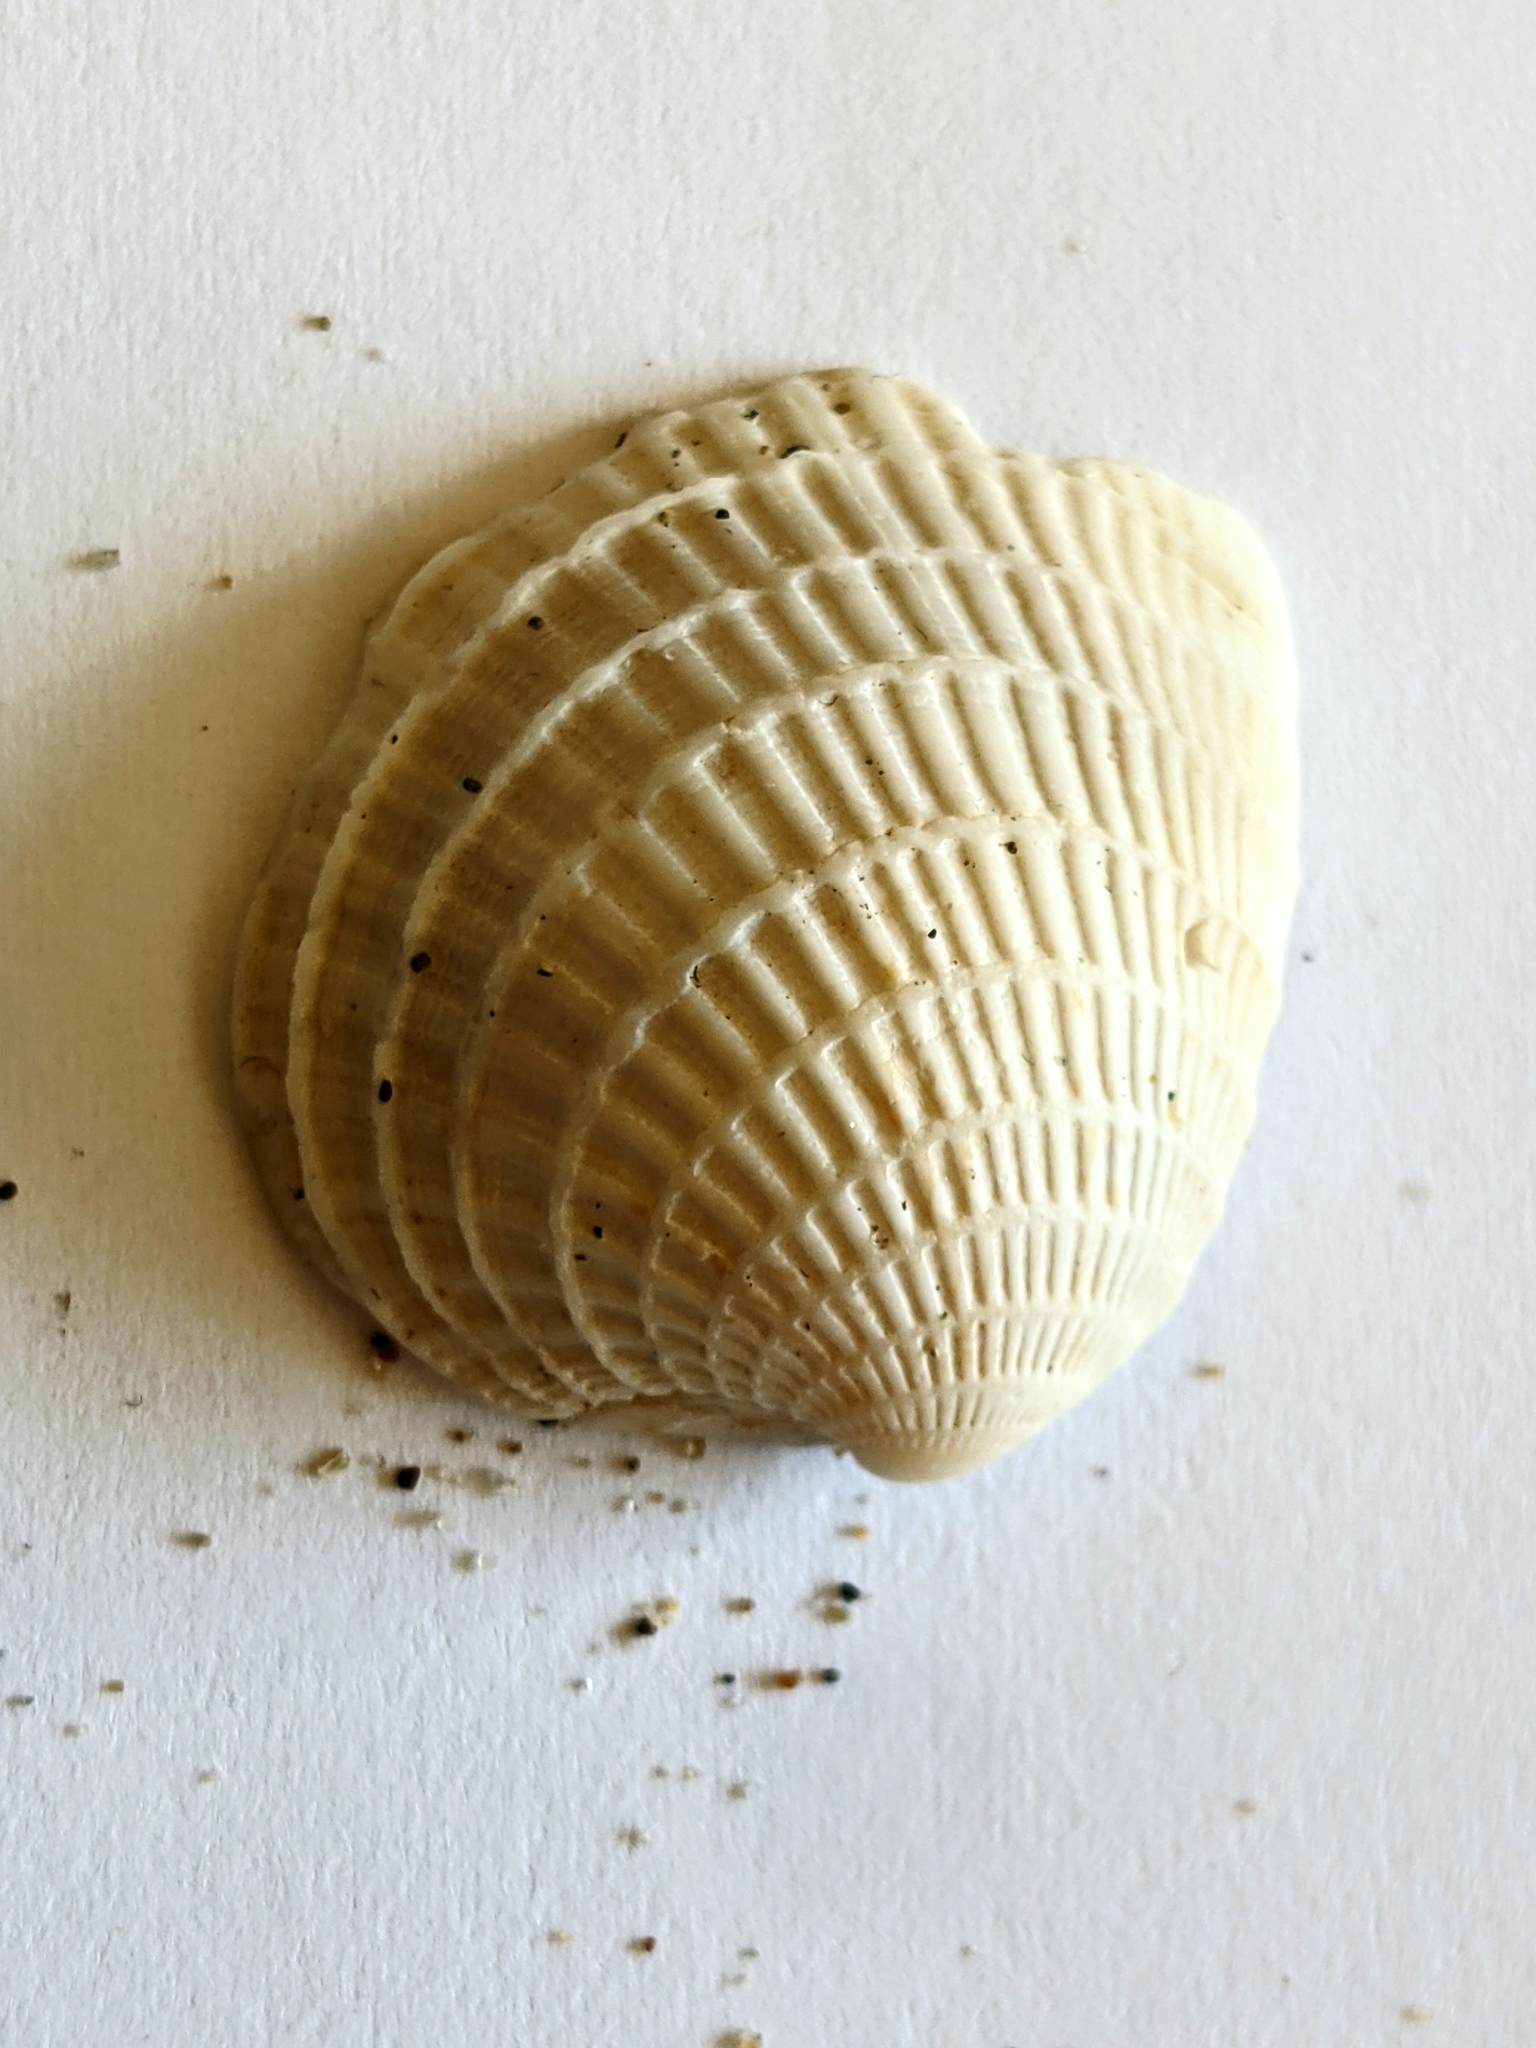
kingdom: Animalia
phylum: Mollusca
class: Bivalvia
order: Venerida
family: Veneridae
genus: Chione
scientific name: Chione californiensis
